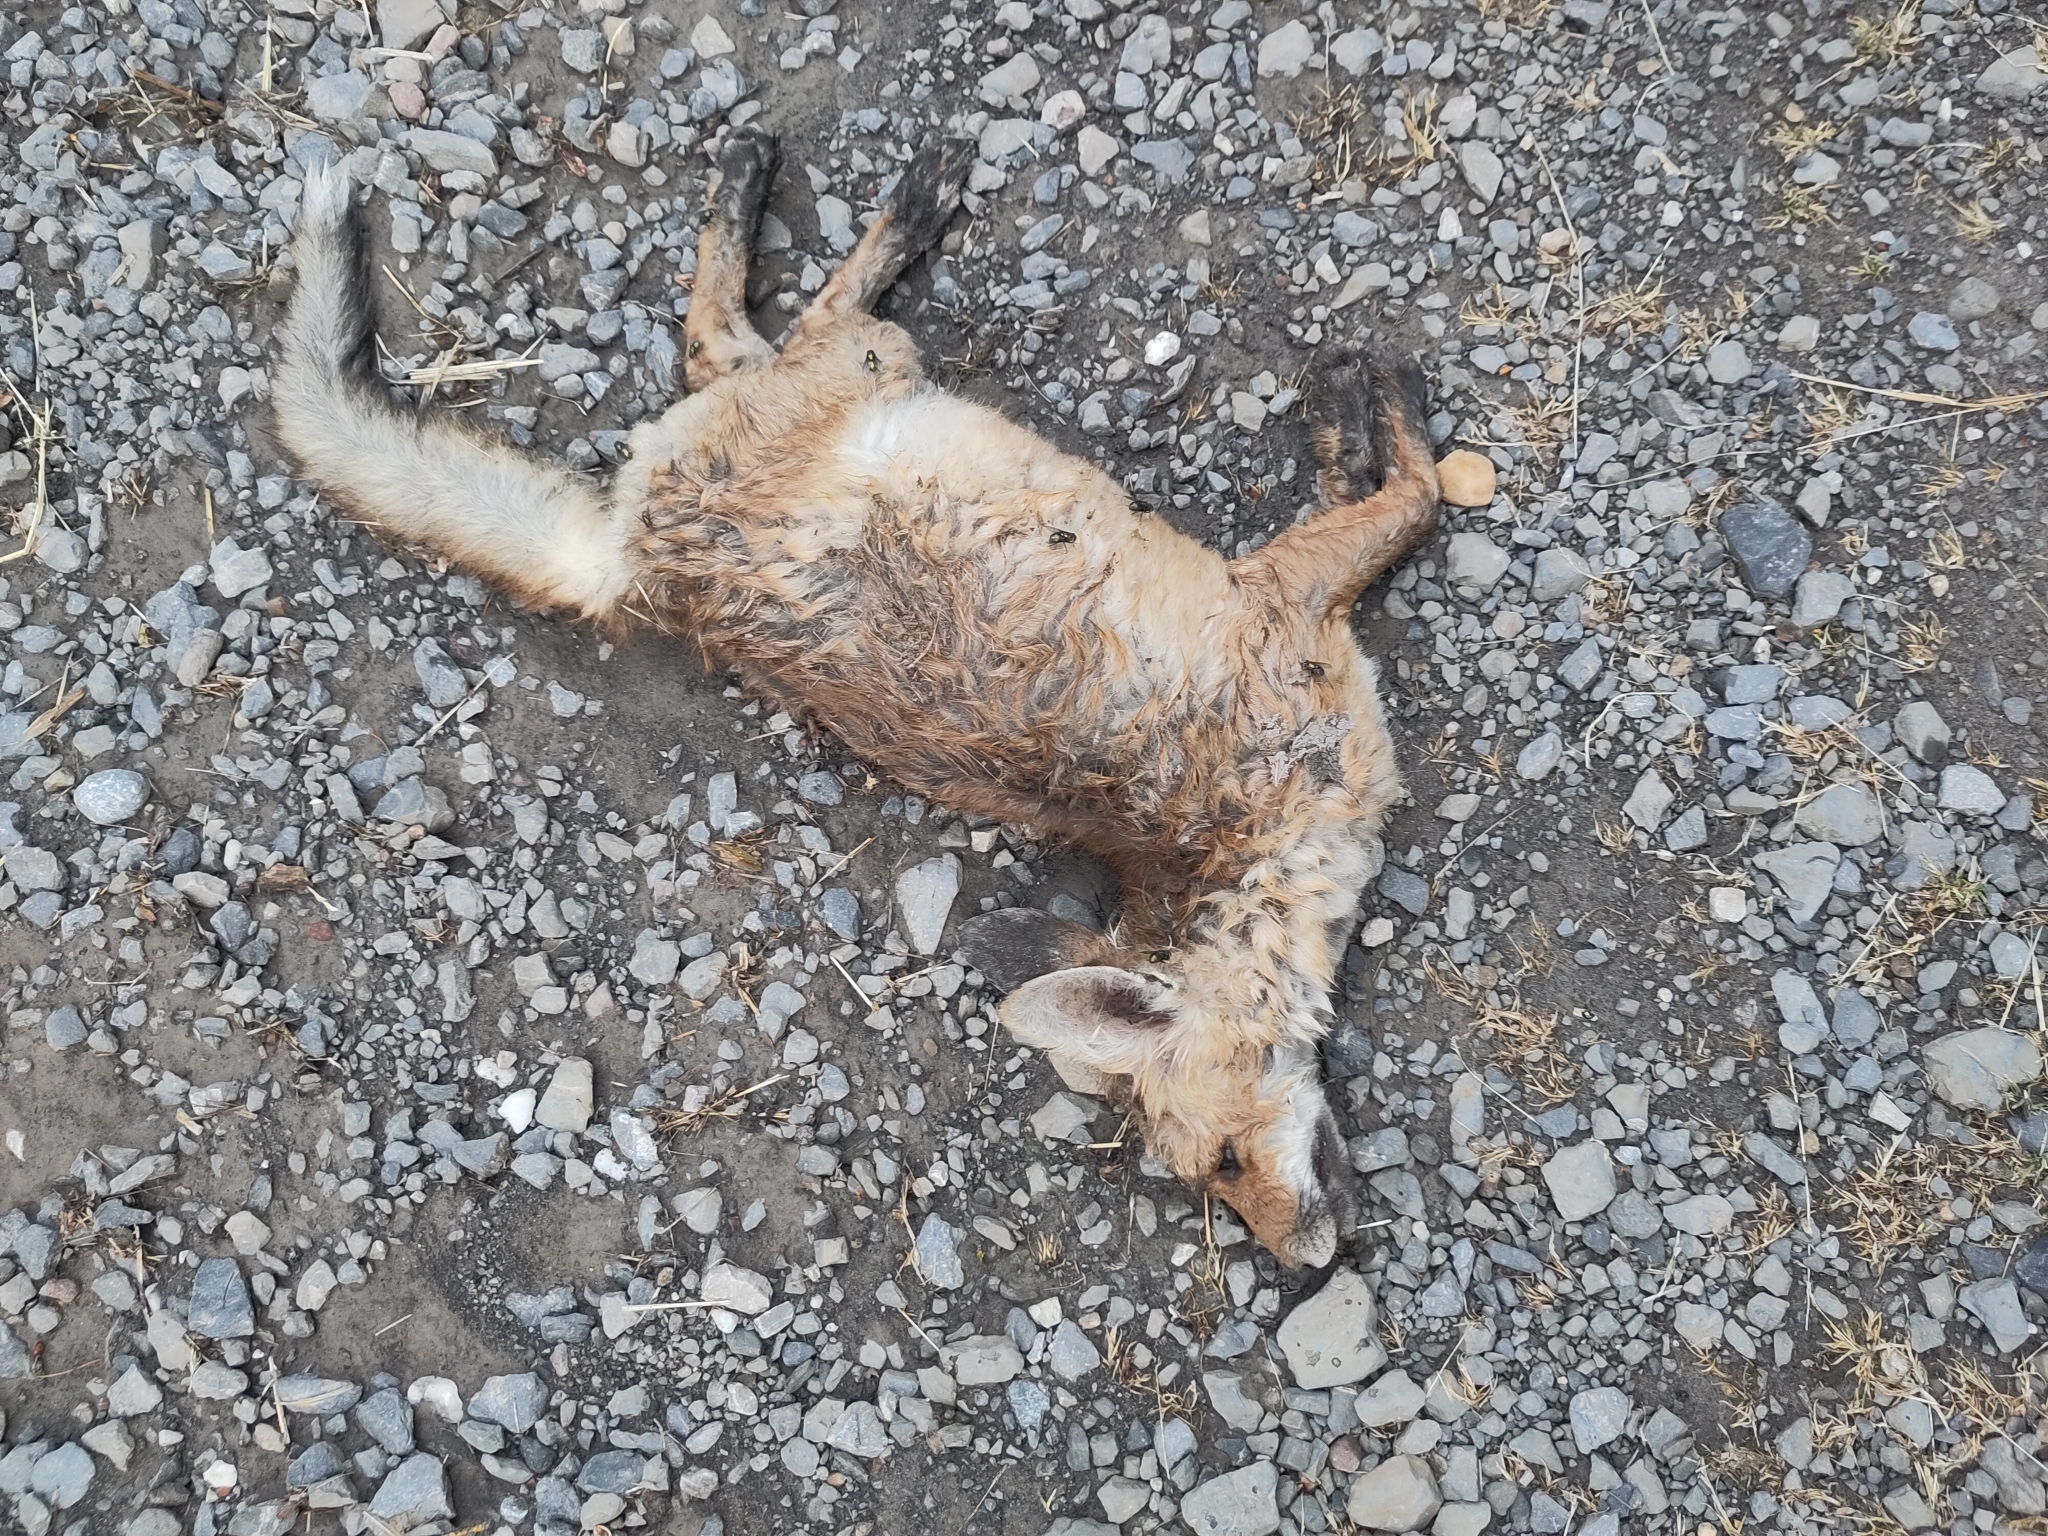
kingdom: Animalia
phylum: Chordata
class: Mammalia
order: Carnivora
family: Canidae
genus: Vulpes
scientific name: Vulpes vulpes
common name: Red fox
